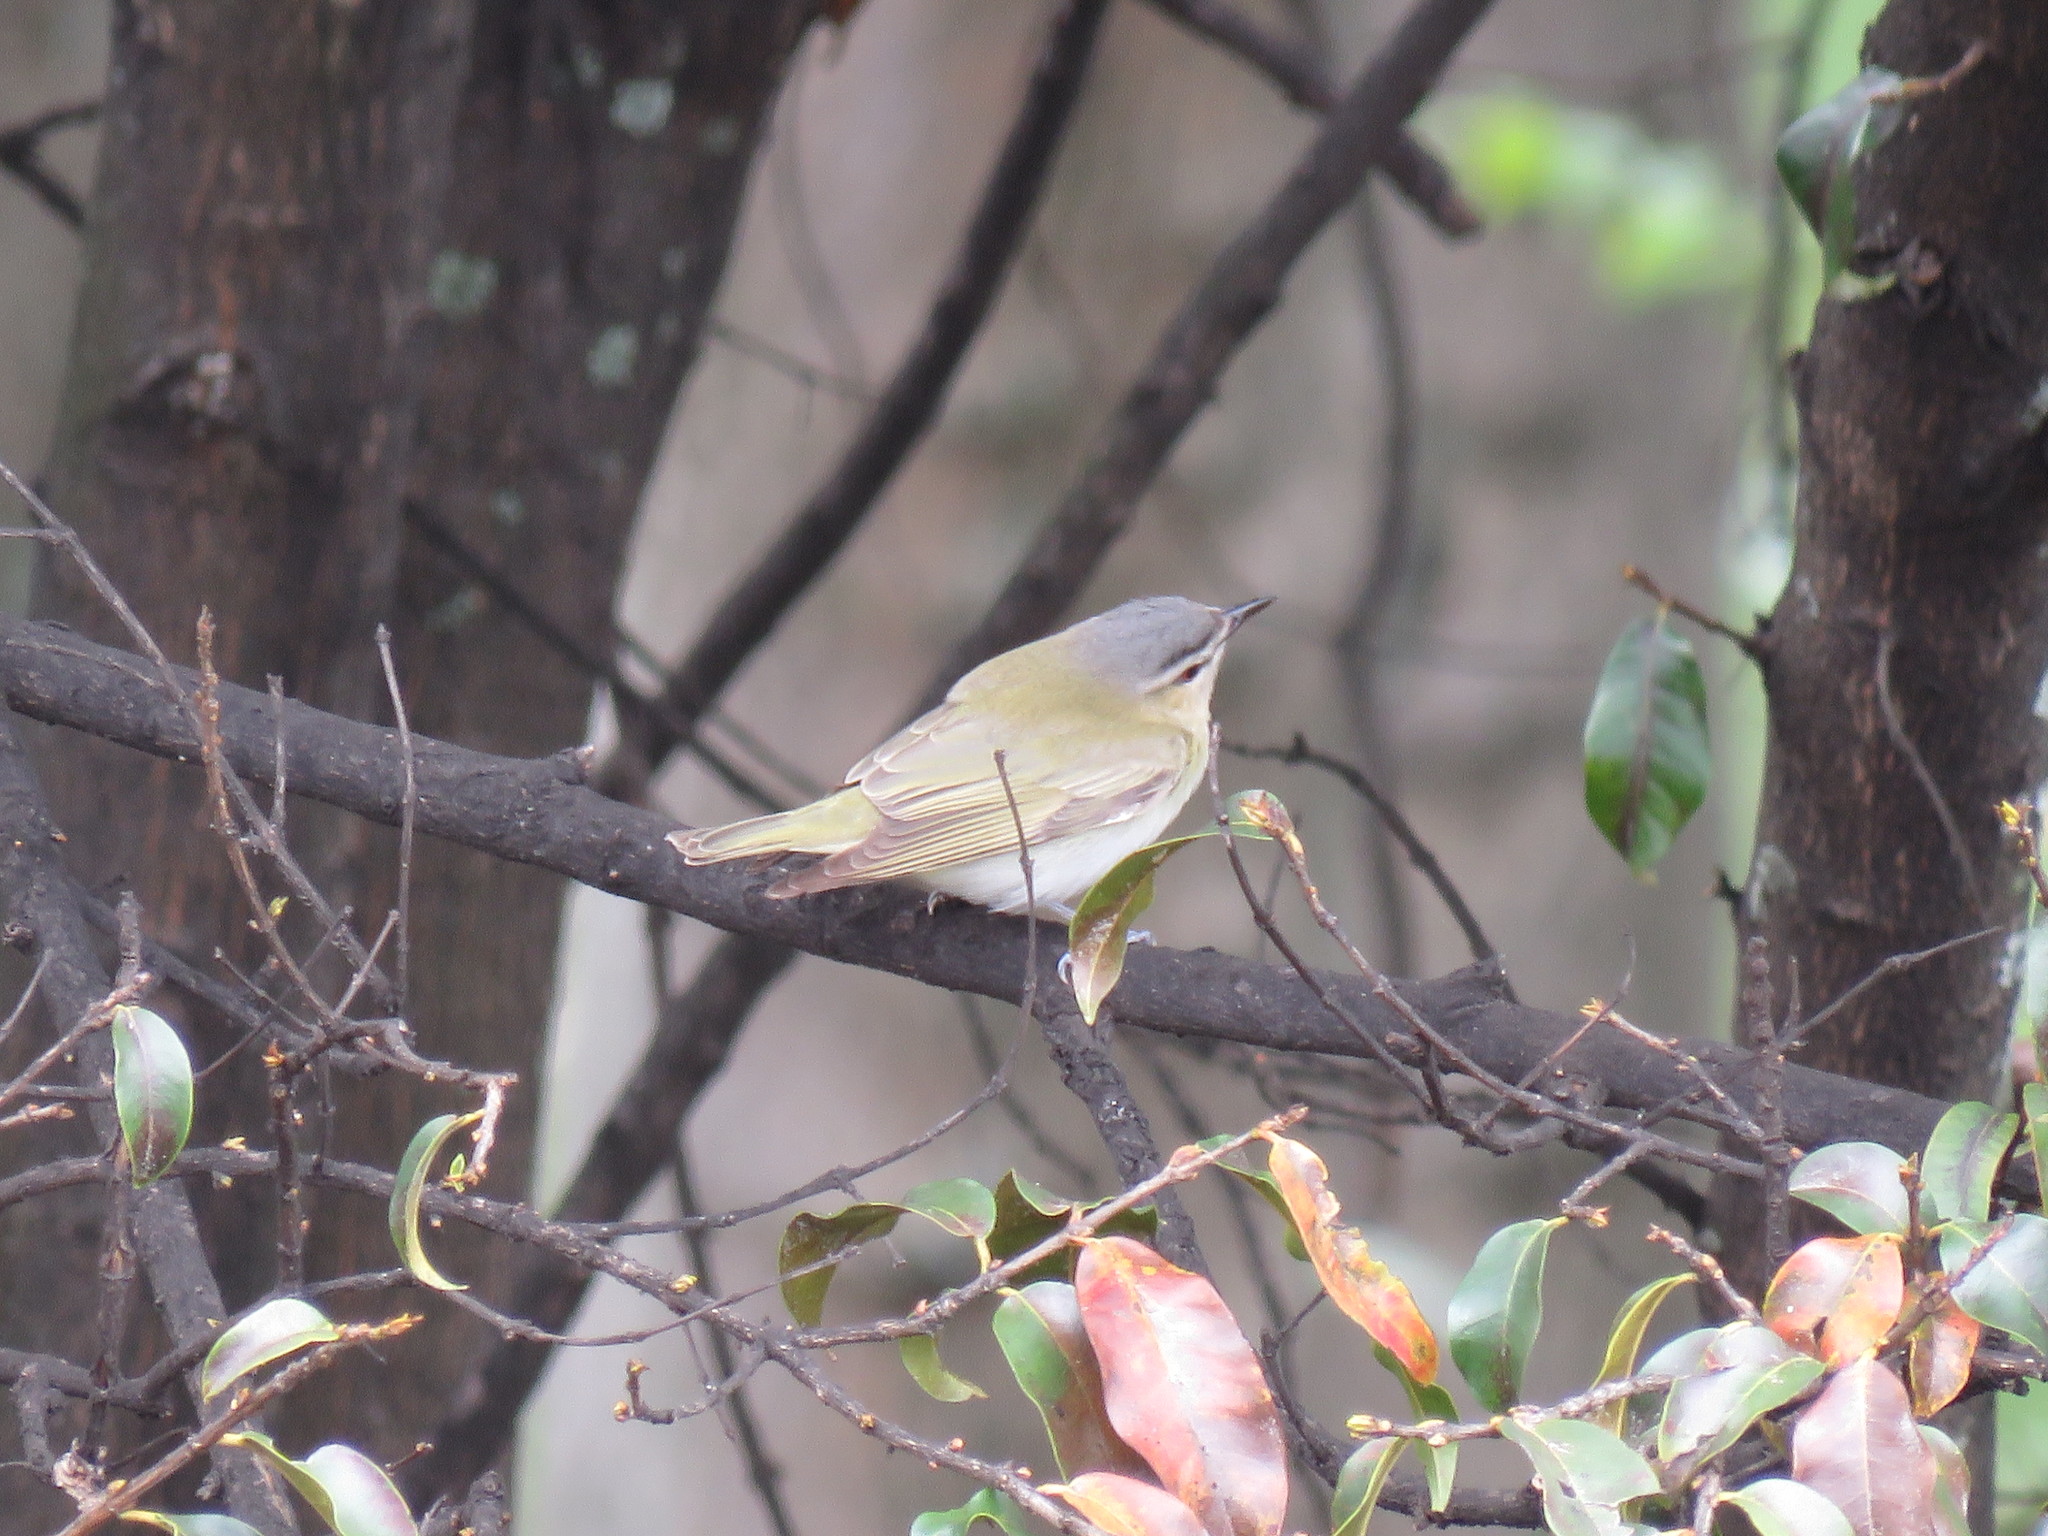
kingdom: Animalia
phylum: Chordata
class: Aves
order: Passeriformes
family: Vireonidae
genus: Vireo
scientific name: Vireo olivaceus
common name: Red-eyed vireo
